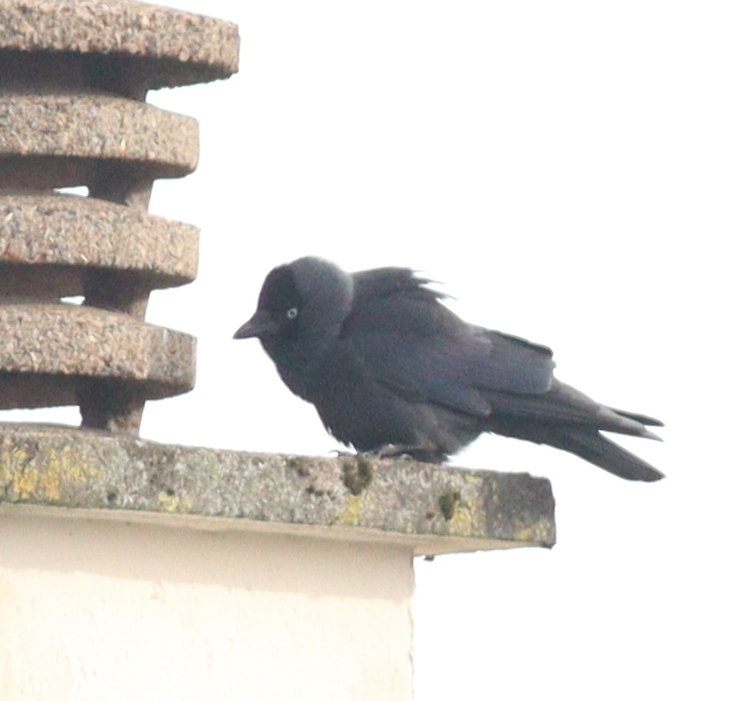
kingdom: Animalia
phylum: Chordata
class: Aves
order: Passeriformes
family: Corvidae
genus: Coloeus
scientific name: Coloeus monedula
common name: Western jackdaw
